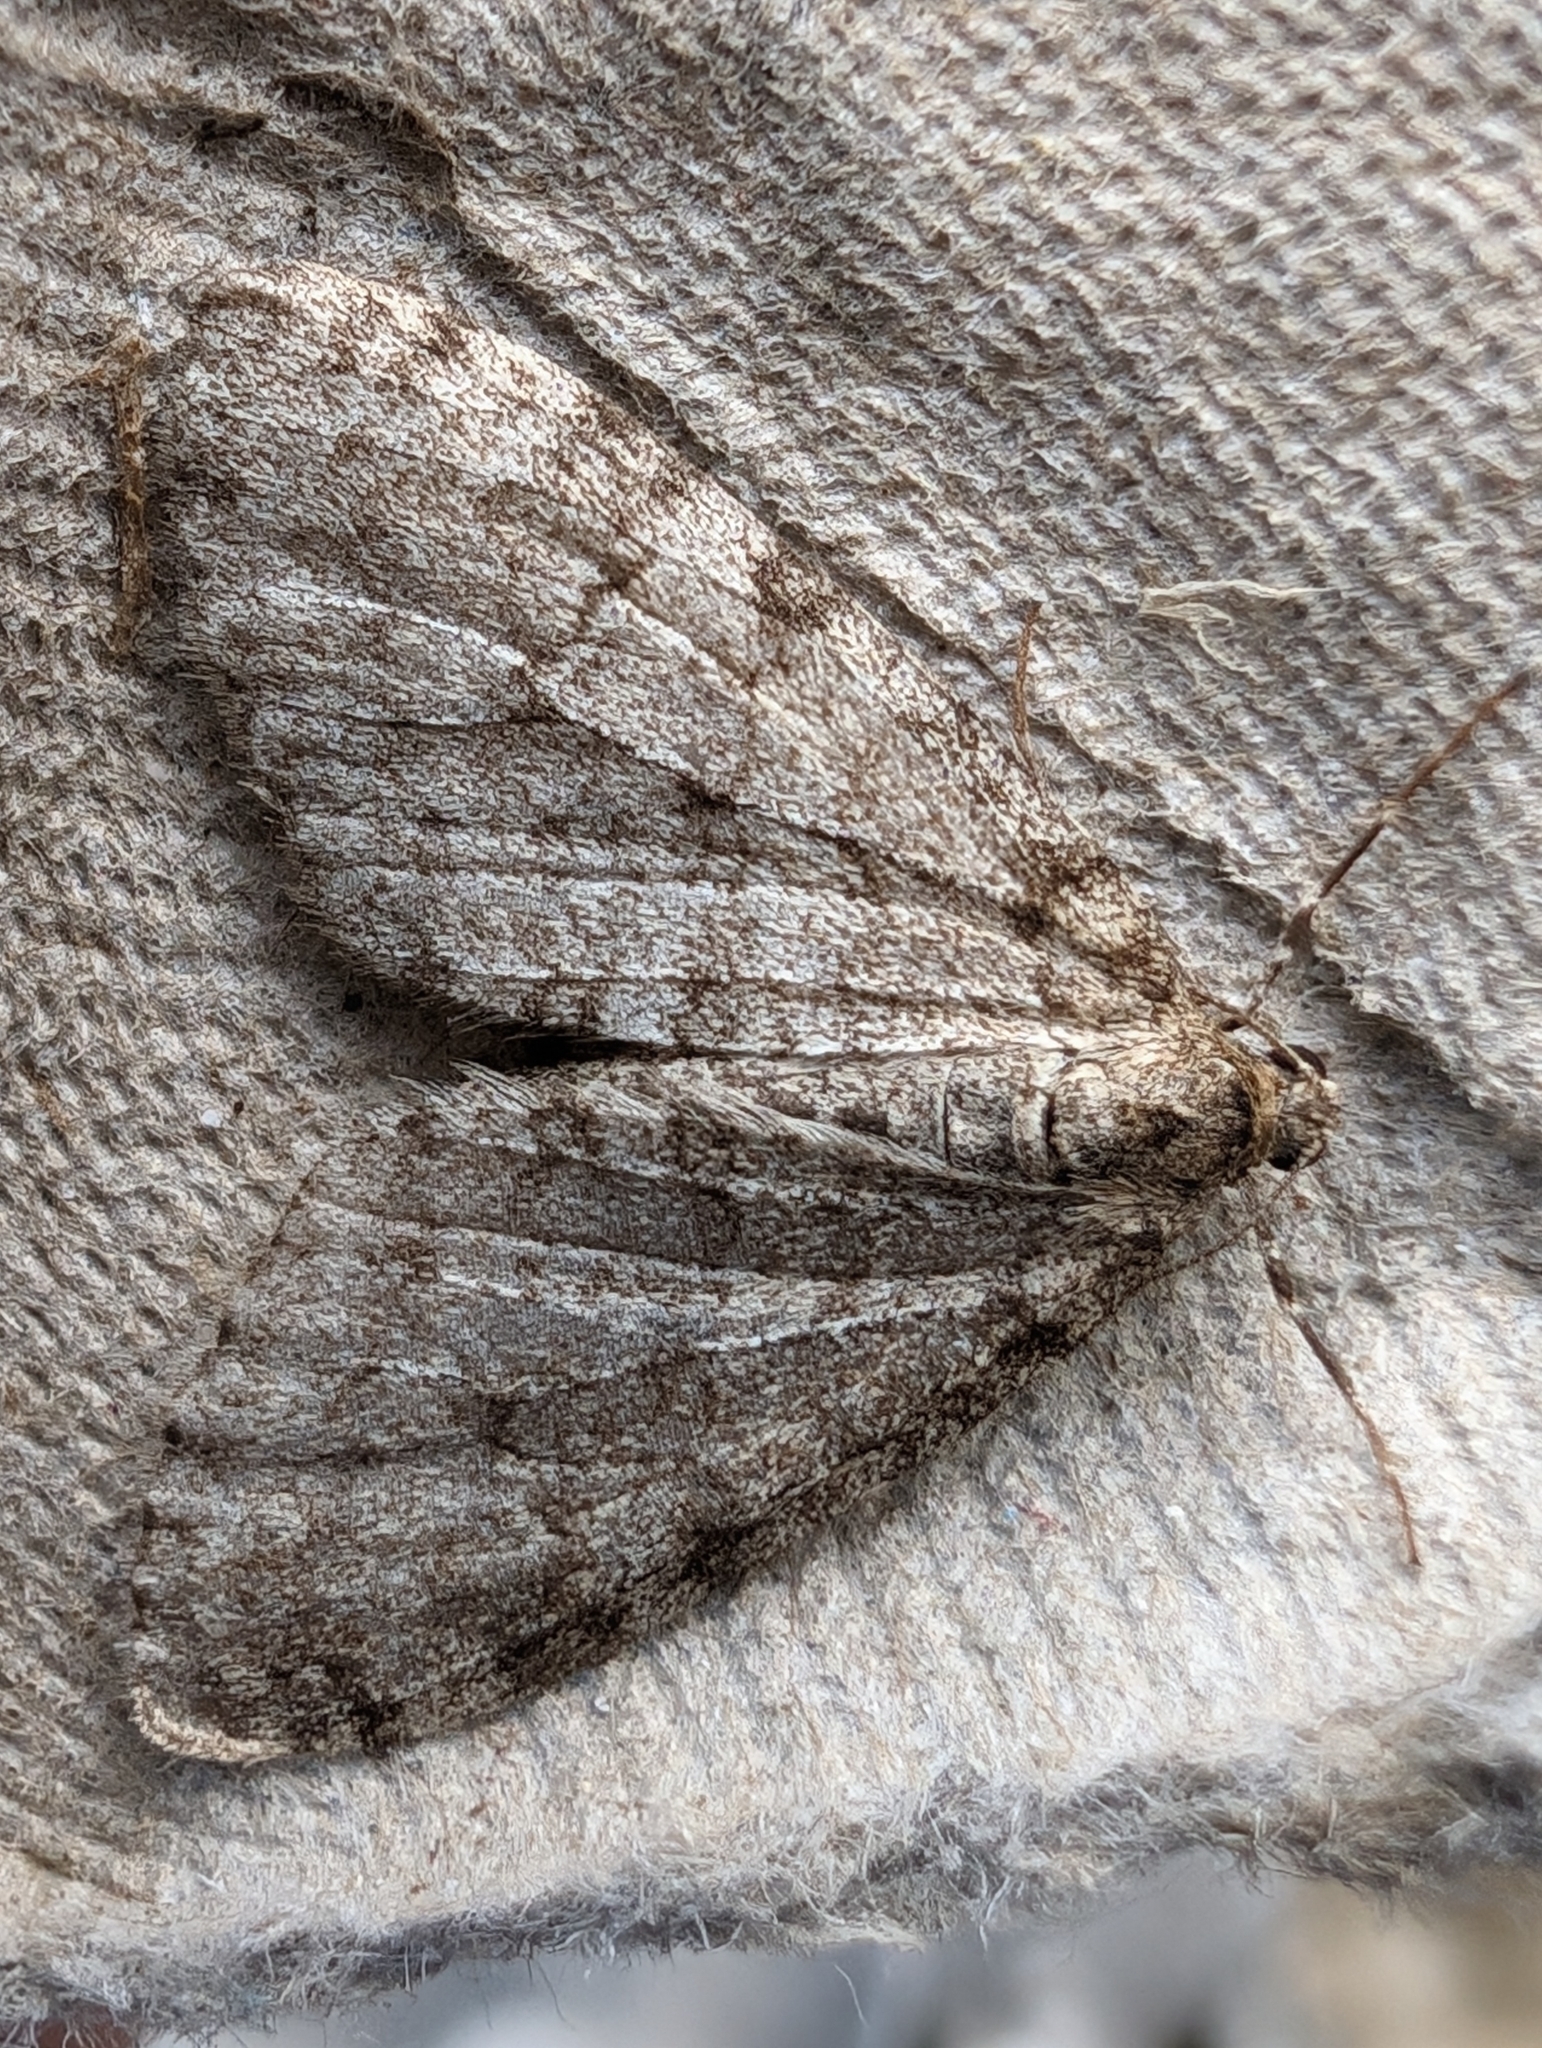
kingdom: Animalia
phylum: Arthropoda
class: Insecta
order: Lepidoptera
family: Geometridae
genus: Trichopteryx
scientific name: Trichopteryx carpinata
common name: Early tooth-striped
